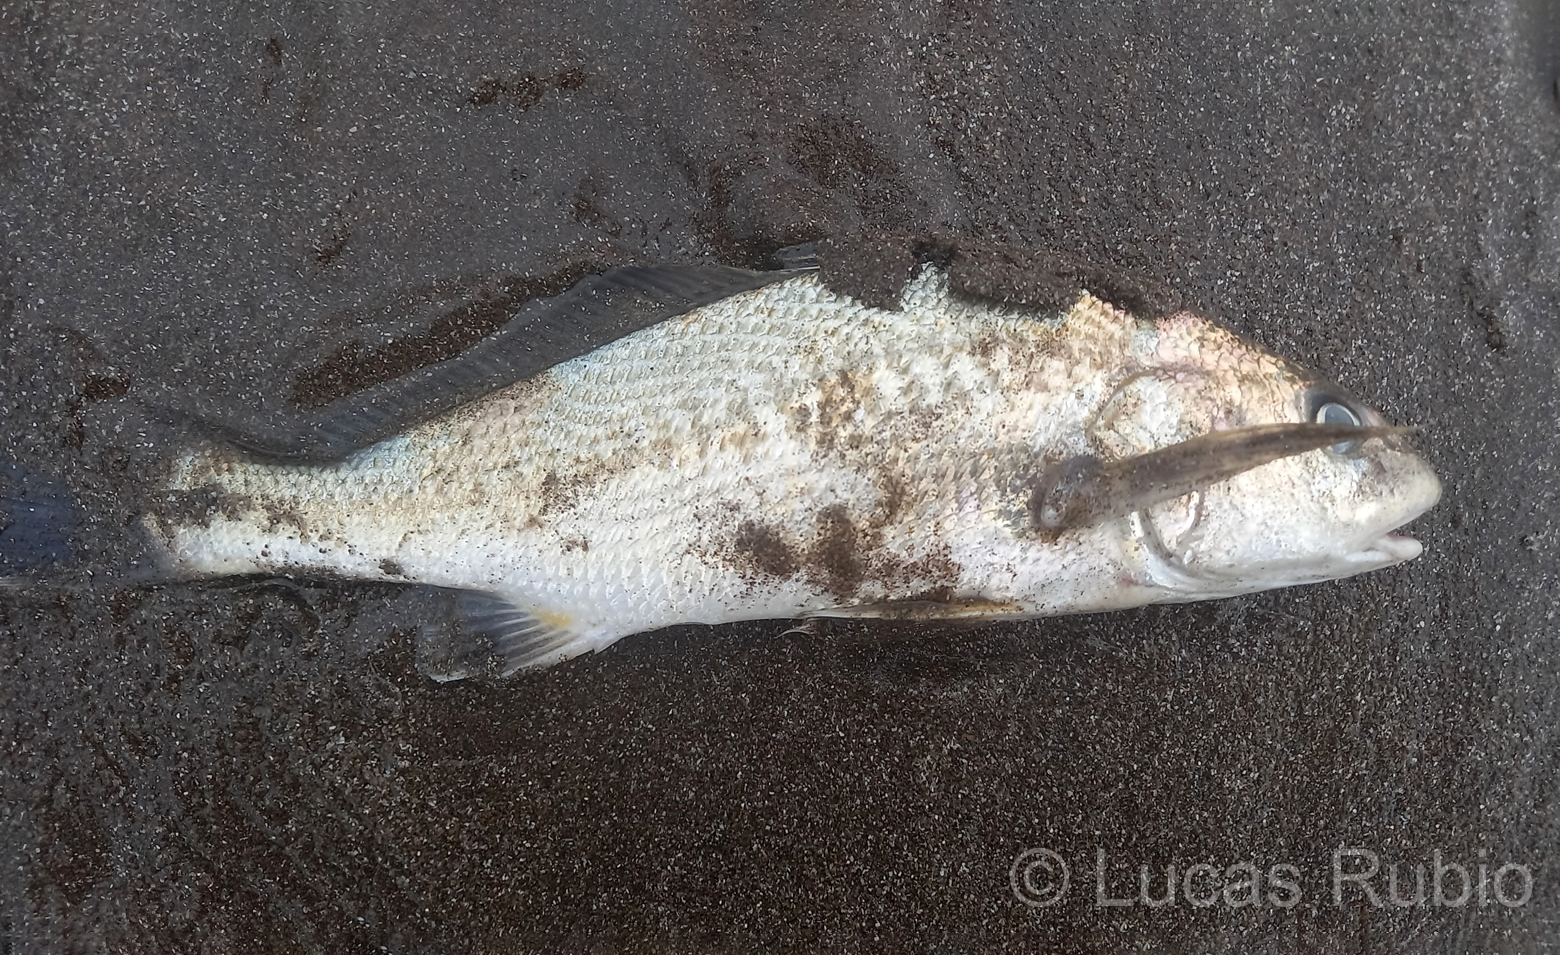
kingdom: Animalia
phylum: Chordata
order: Perciformes
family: Sciaenidae
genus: Micropogonias
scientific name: Micropogonias furnieri
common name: Whitemouth croaker
